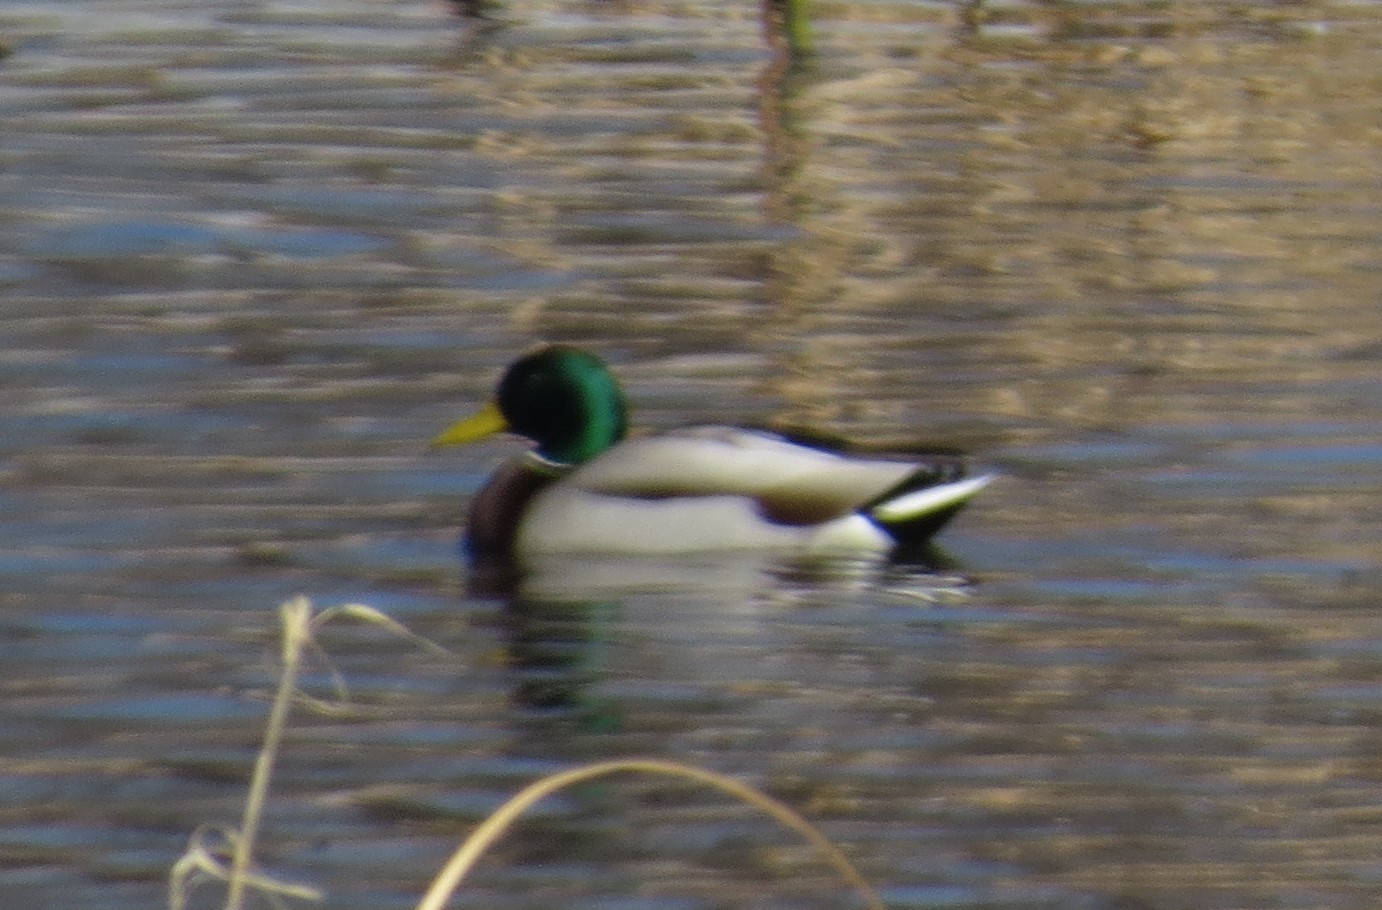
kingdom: Animalia
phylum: Chordata
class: Aves
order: Anseriformes
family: Anatidae
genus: Anas
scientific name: Anas platyrhynchos
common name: Mallard
